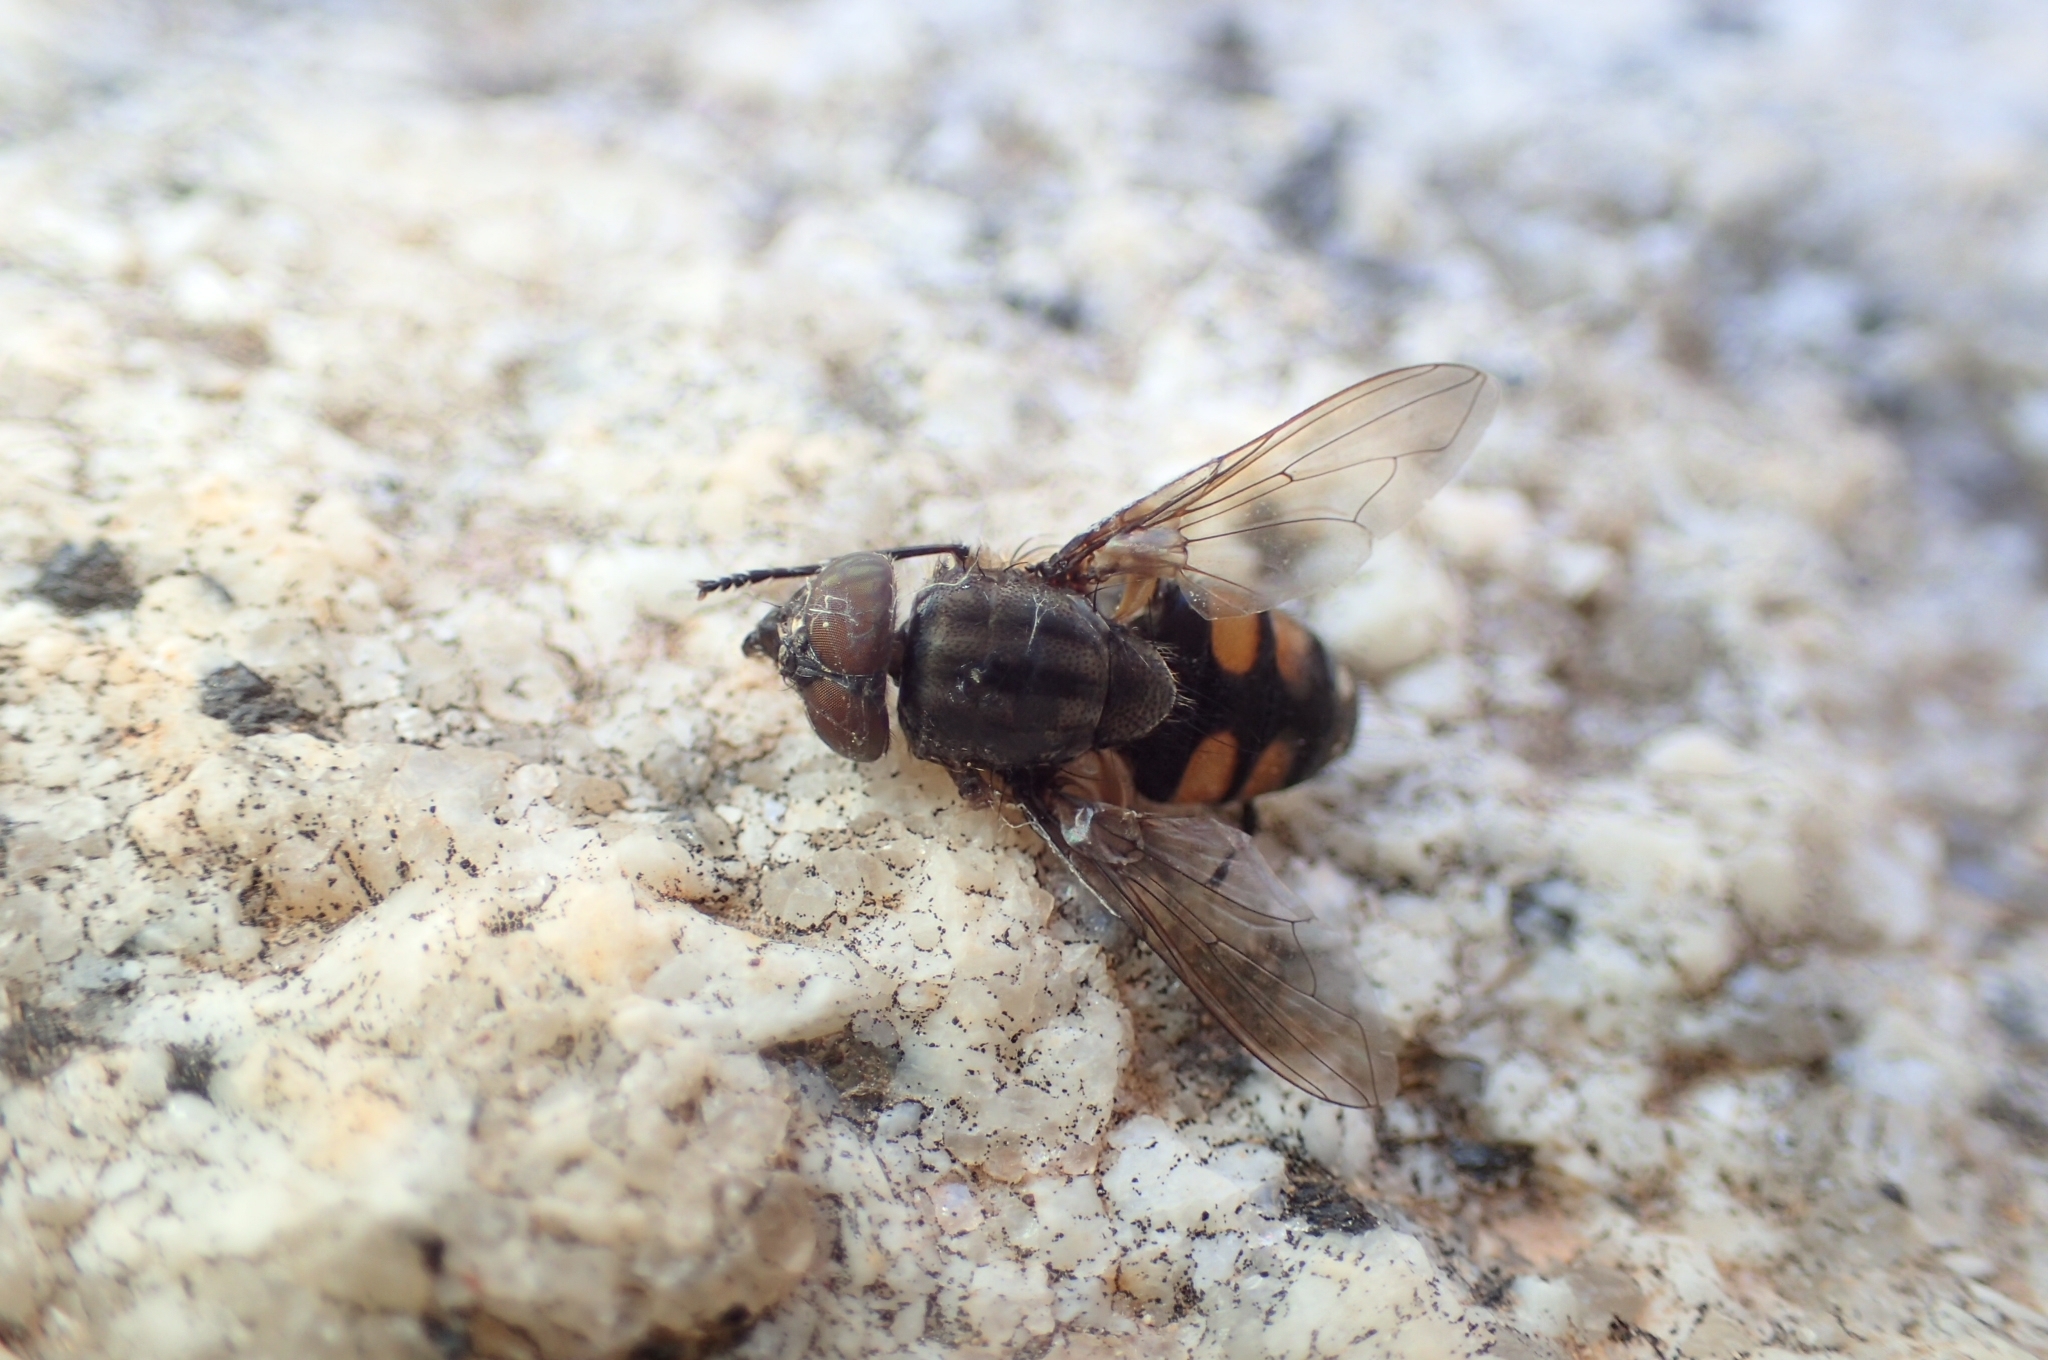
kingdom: Animalia
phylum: Arthropoda
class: Insecta
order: Diptera
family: Calliphoridae
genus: Stomorhina
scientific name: Stomorhina lunata
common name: Locust blowfly
